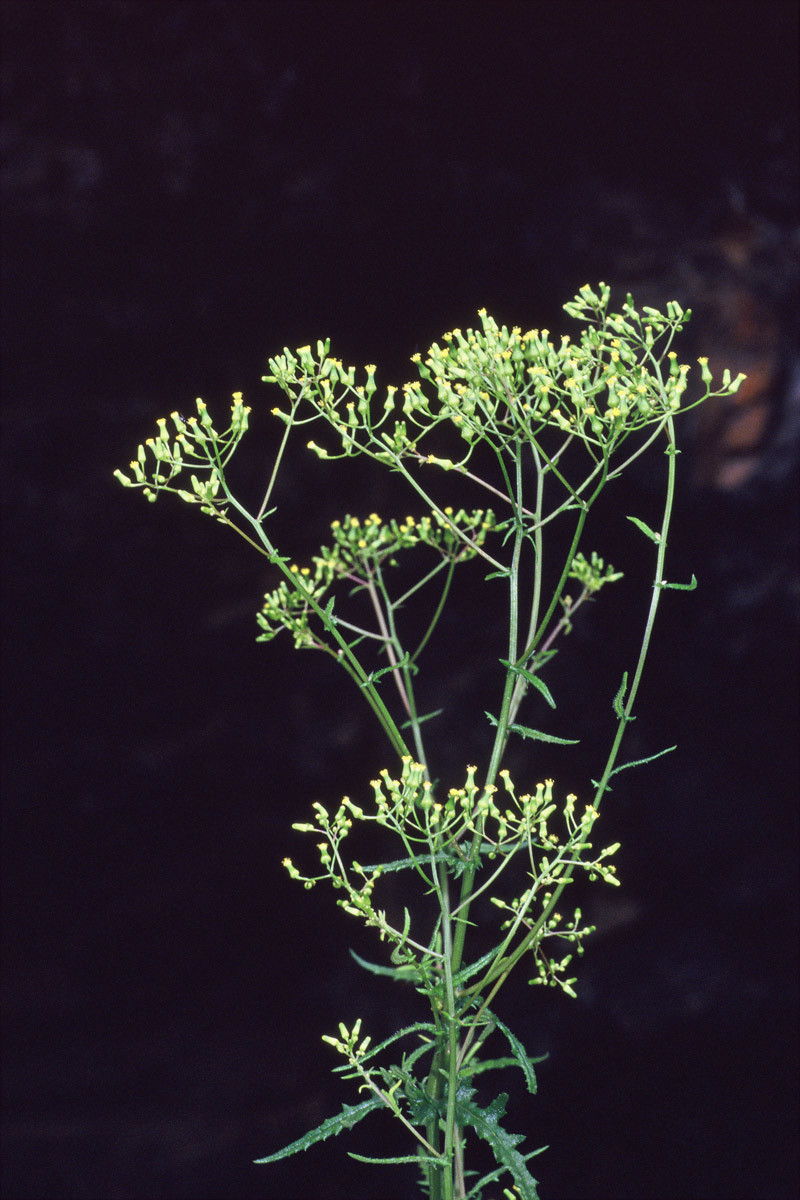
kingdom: Plantae
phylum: Tracheophyta
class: Magnoliopsida
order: Asterales
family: Asteraceae
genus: Senecio
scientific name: Senecio hispidulus
